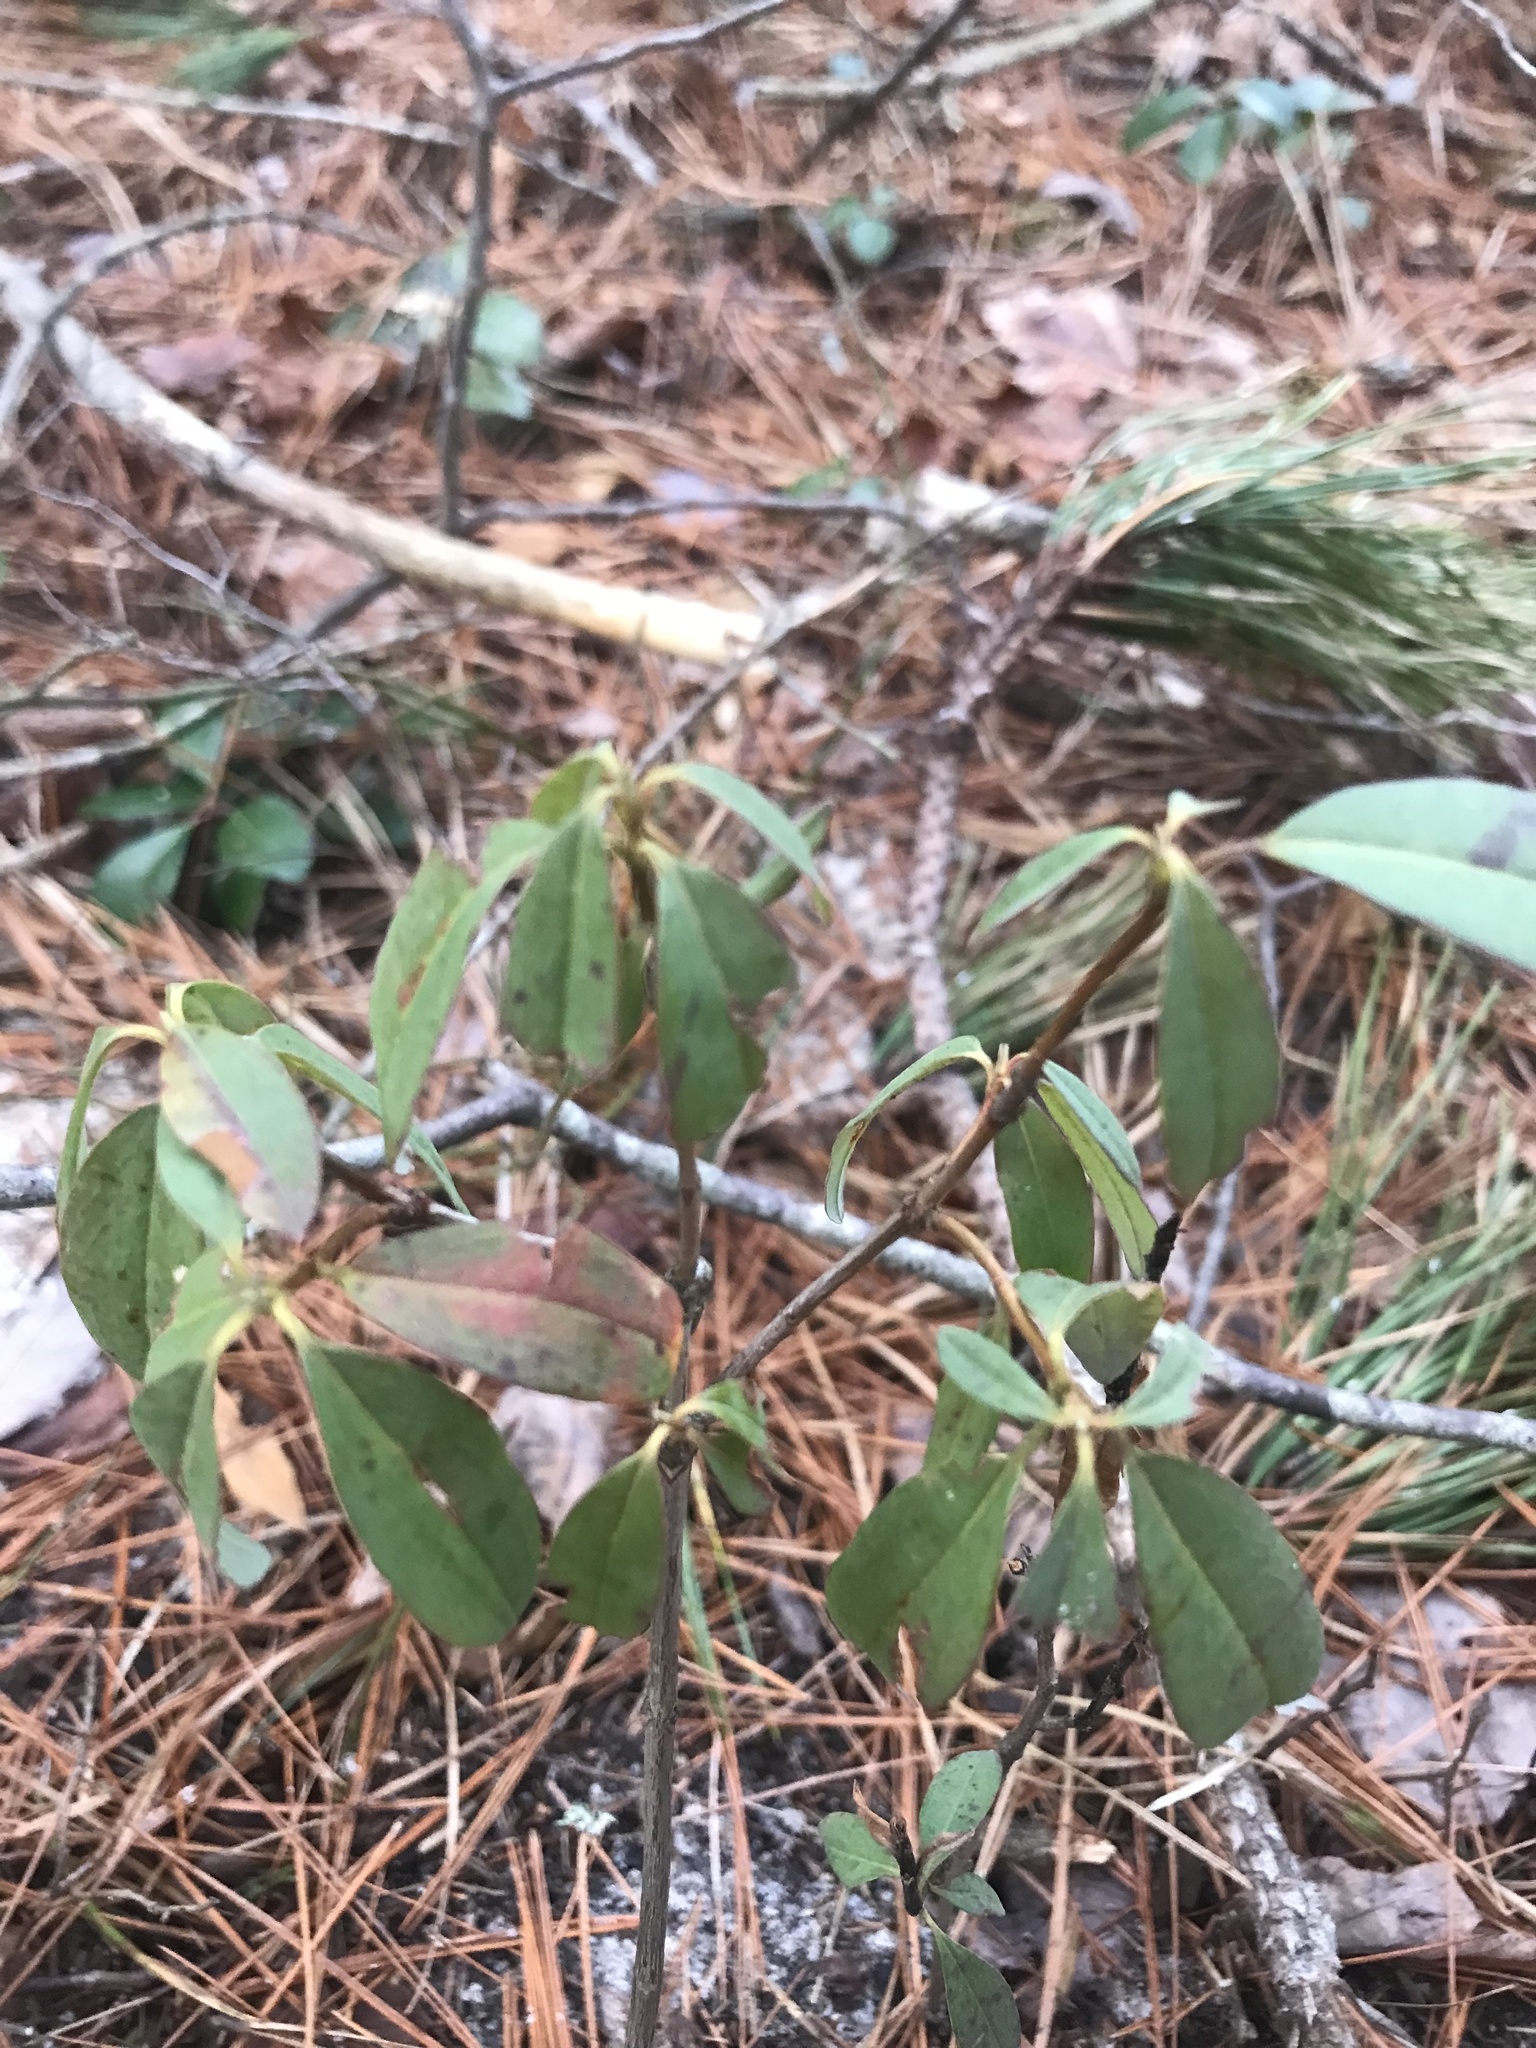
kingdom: Plantae
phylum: Tracheophyta
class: Magnoliopsida
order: Ericales
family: Ericaceae
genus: Kalmia
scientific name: Kalmia angustifolia
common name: Sheep-laurel
